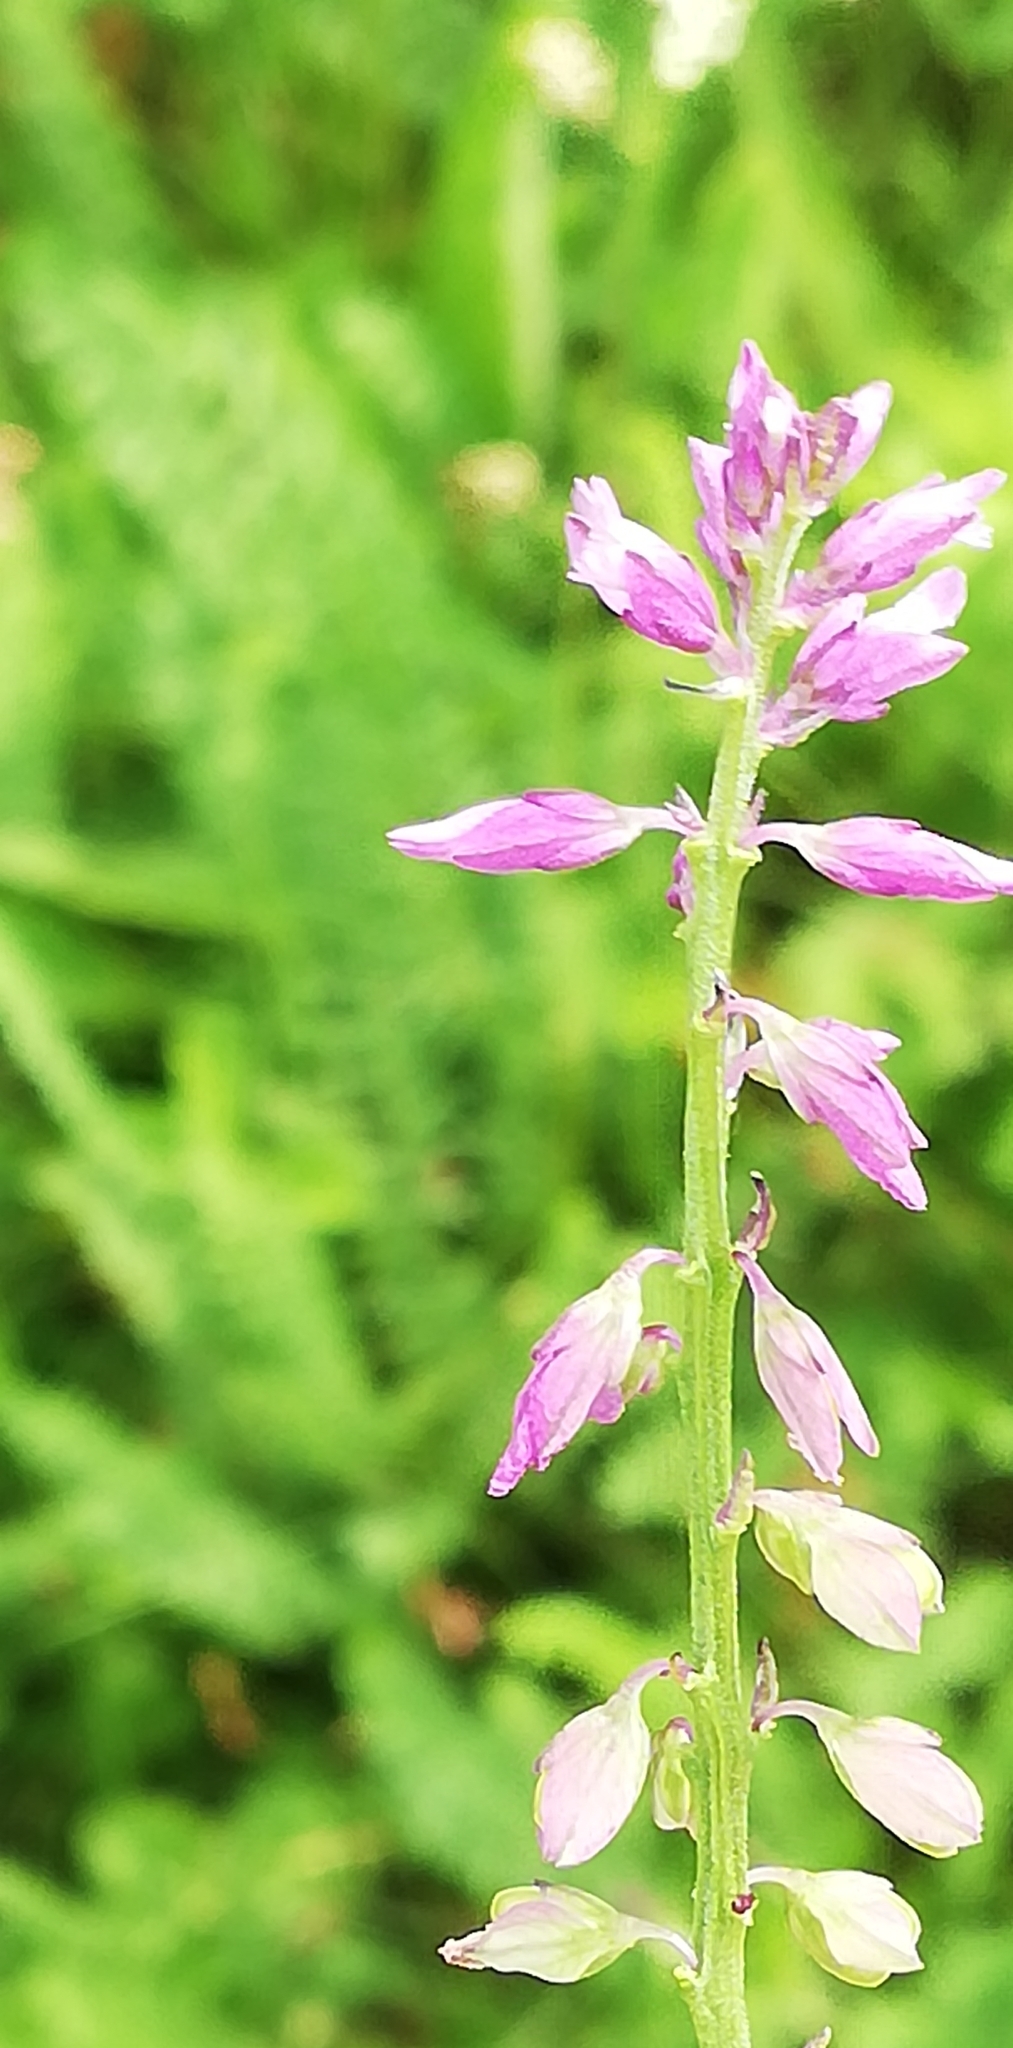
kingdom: Plantae
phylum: Tracheophyta
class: Magnoliopsida
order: Fabales
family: Polygalaceae
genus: Polygala
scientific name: Polygala comosa
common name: Tufted milkwort
